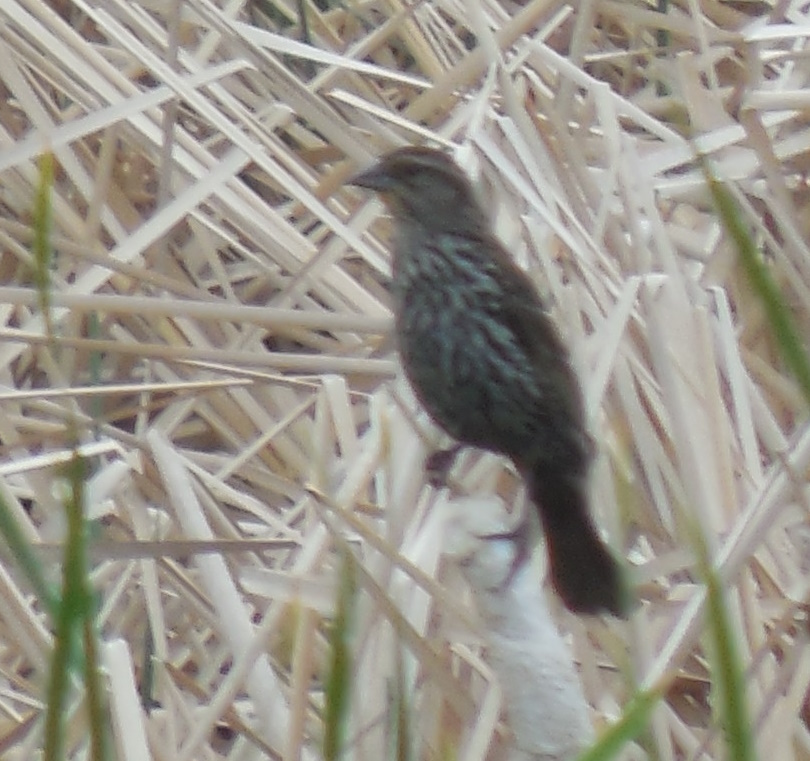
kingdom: Animalia
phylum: Chordata
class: Aves
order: Passeriformes
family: Icteridae
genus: Agelaius
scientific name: Agelaius phoeniceus
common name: Red-winged blackbird
